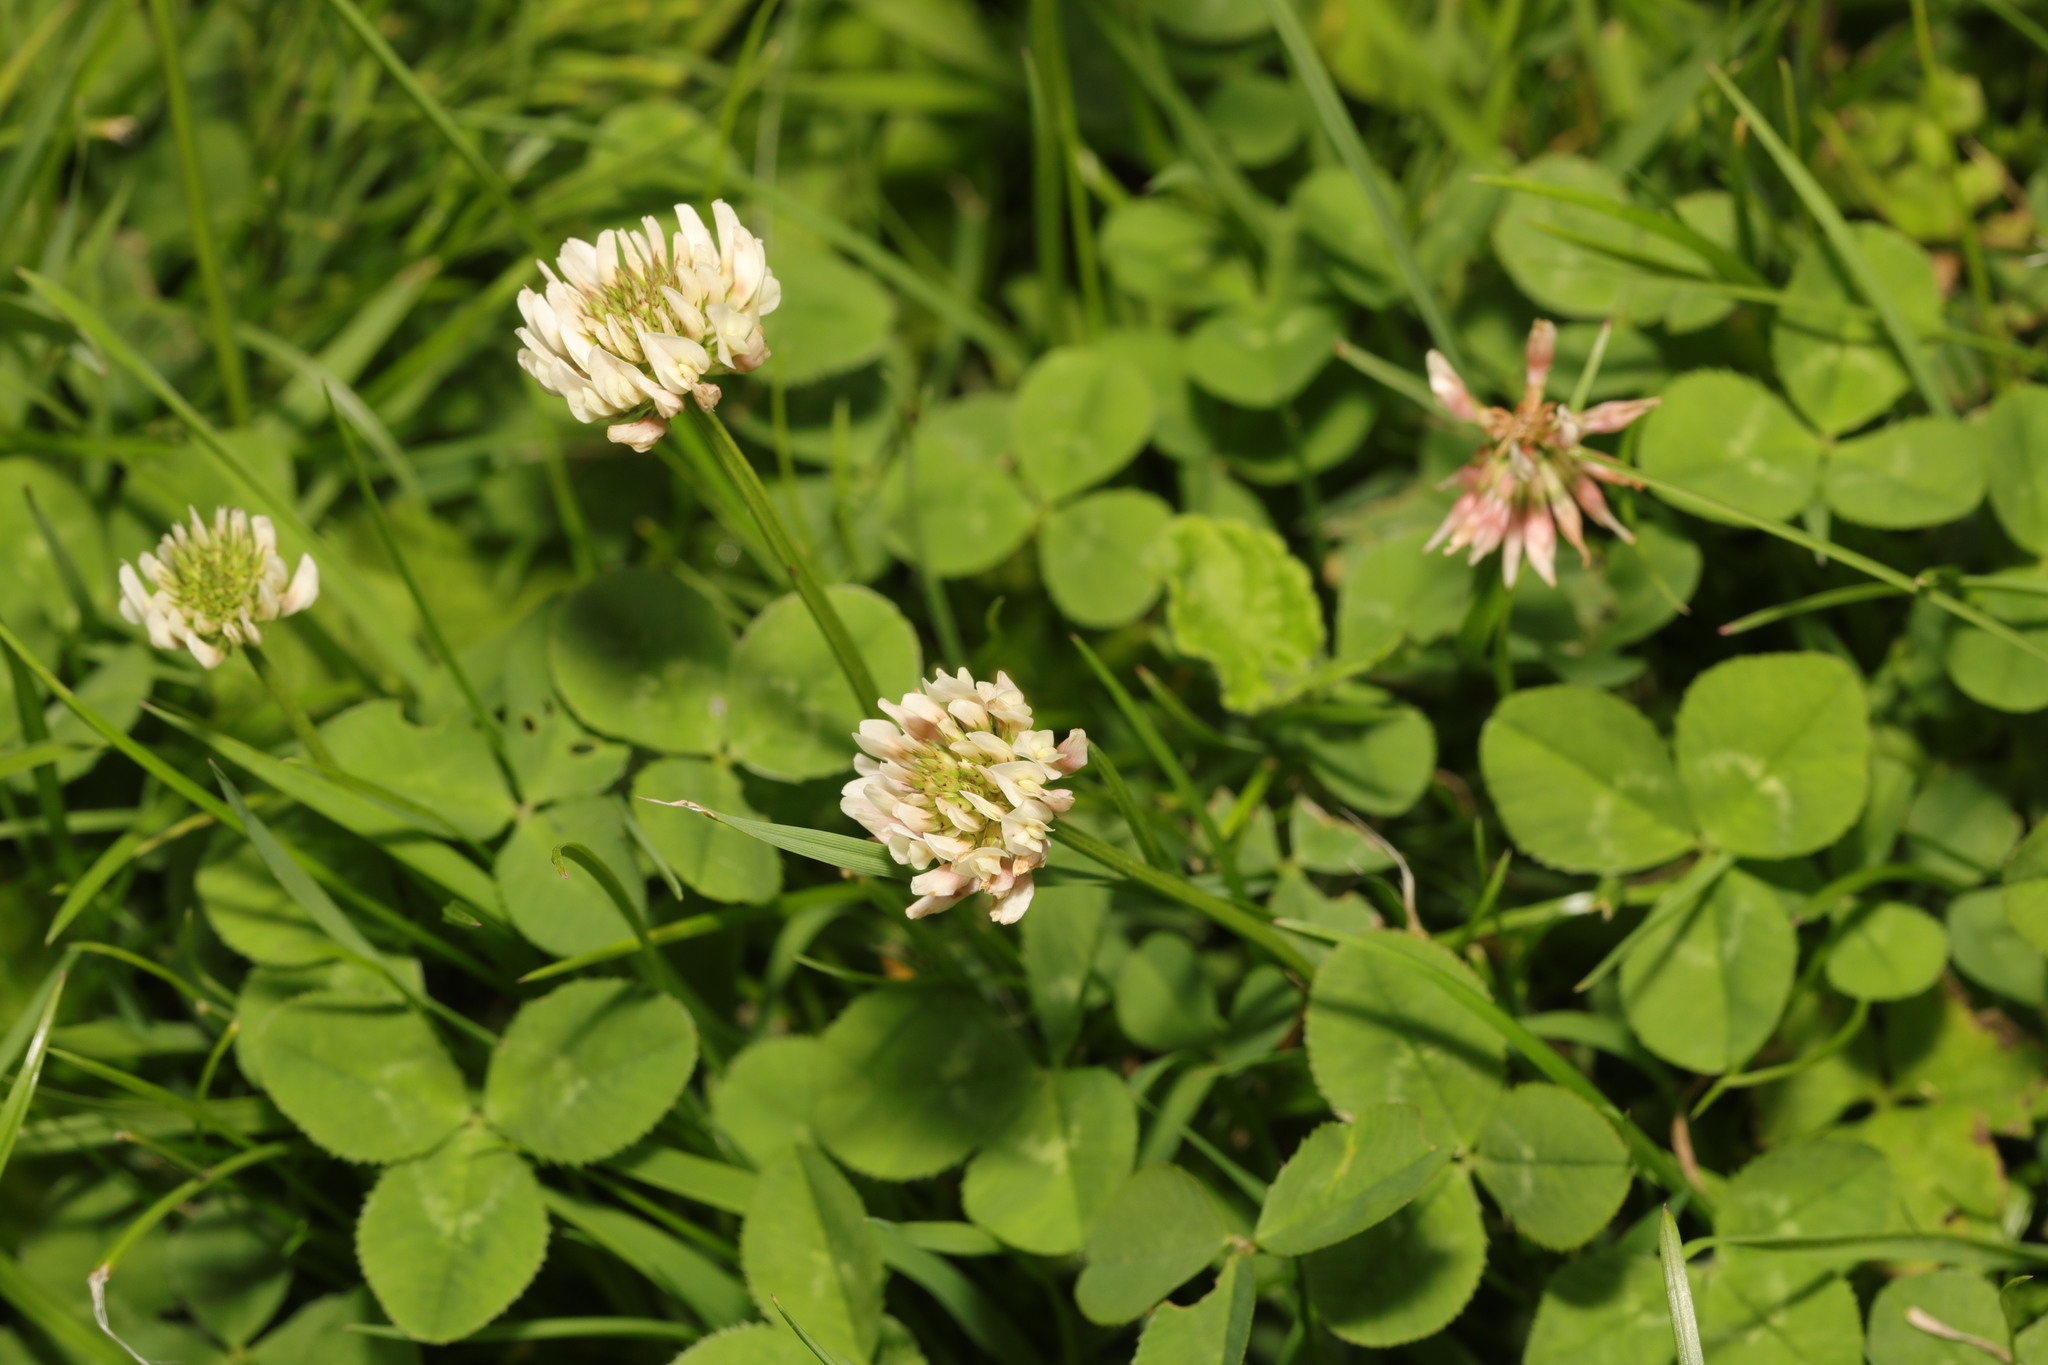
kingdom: Plantae
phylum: Tracheophyta
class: Magnoliopsida
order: Fabales
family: Fabaceae
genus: Trifolium
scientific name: Trifolium repens
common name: White clover
